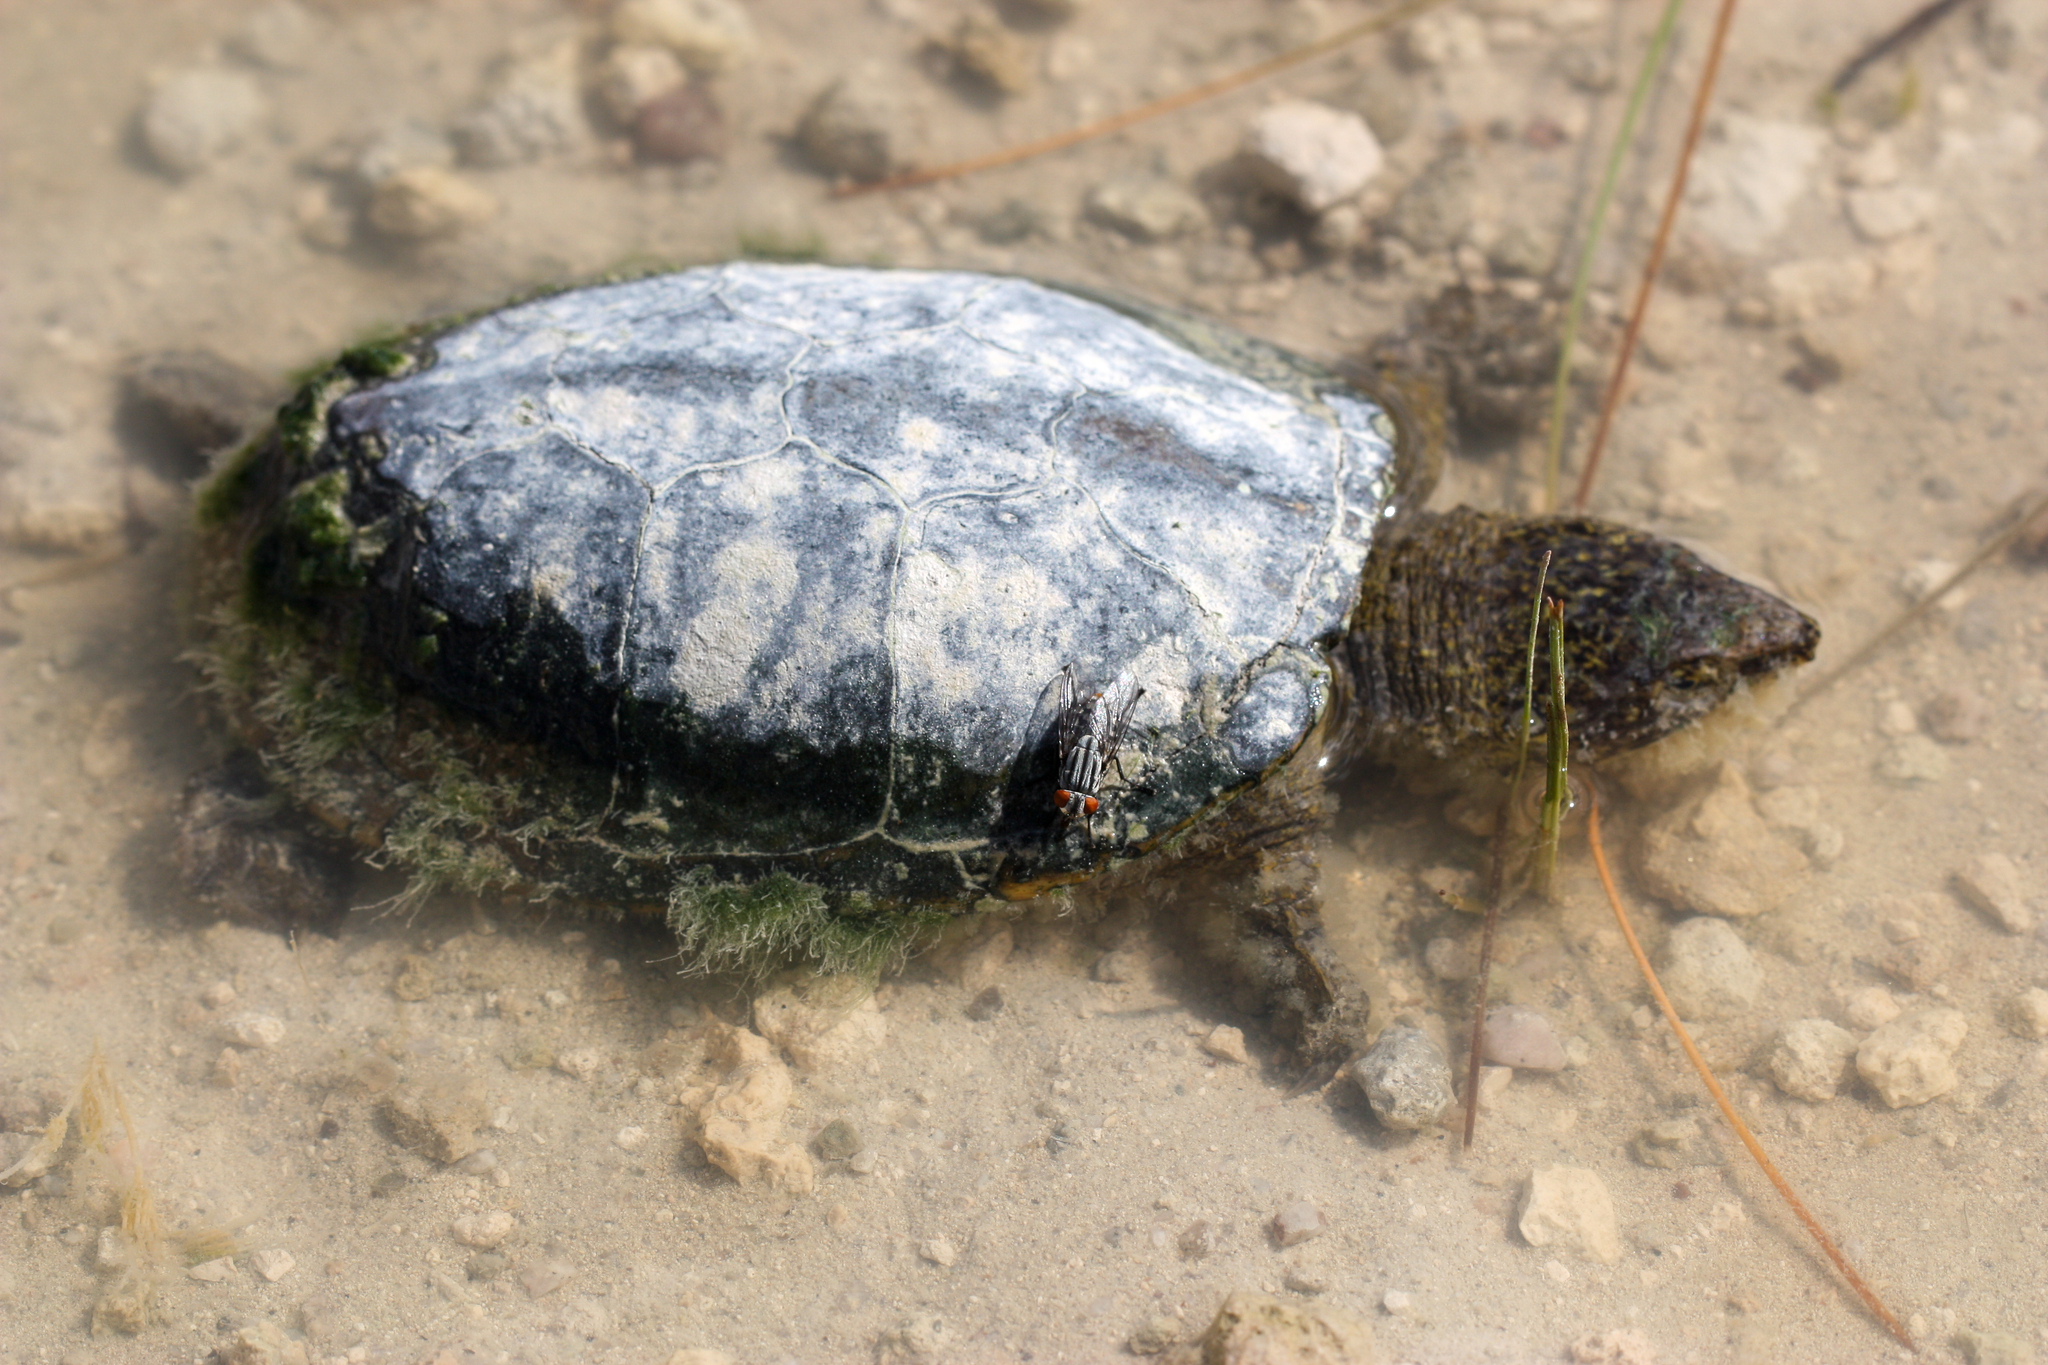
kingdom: Animalia
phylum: Chordata
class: Testudines
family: Kinosternidae
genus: Kinosternon
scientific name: Kinosternon sonoriense
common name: Sonora mud turtle
